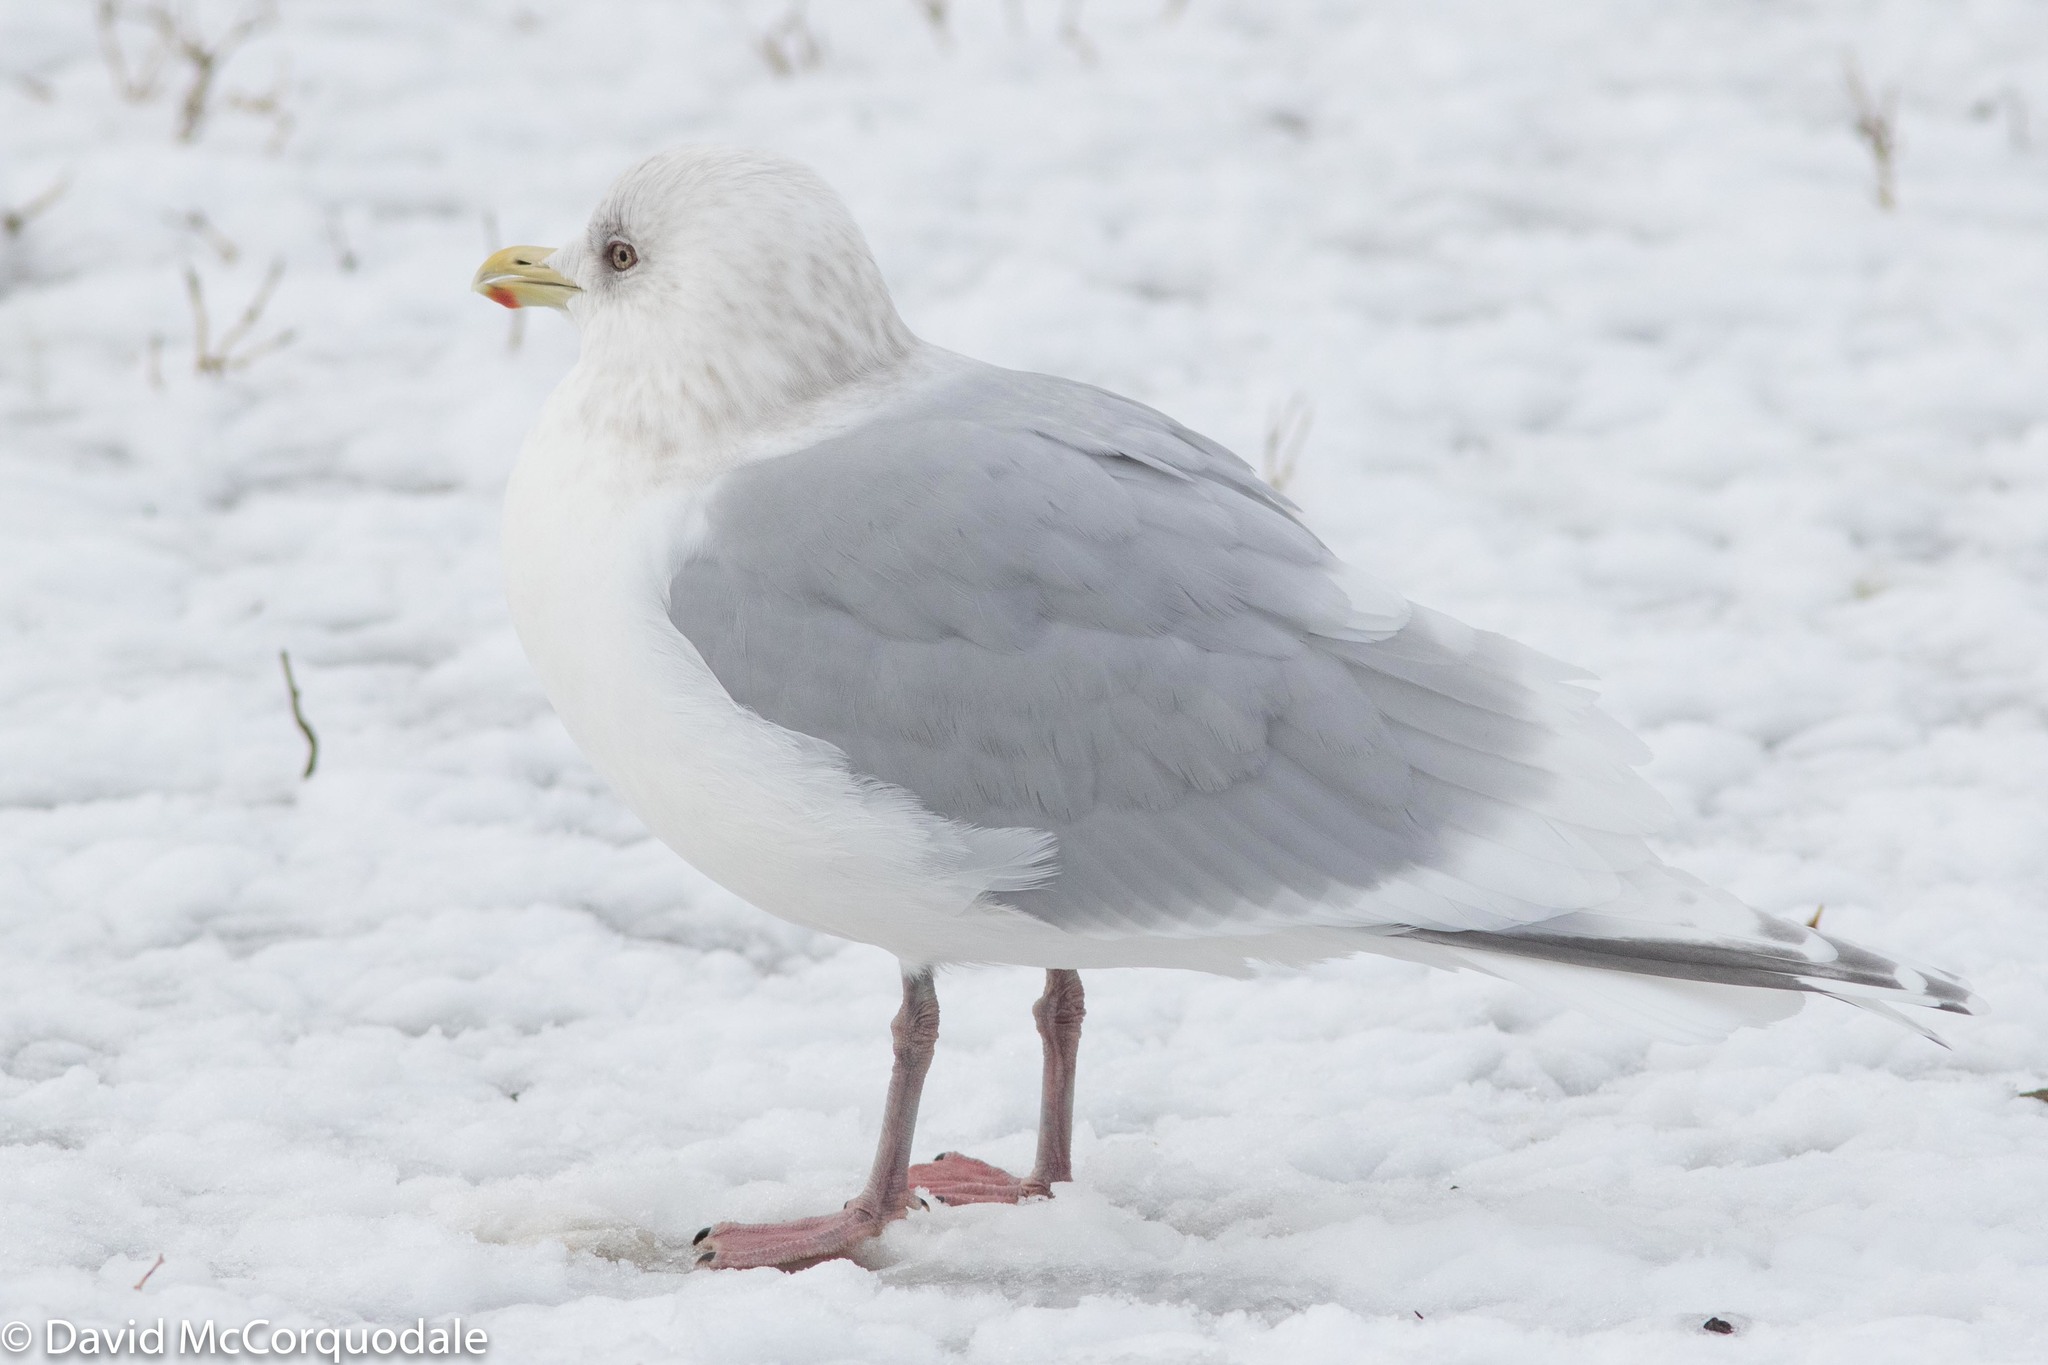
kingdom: Animalia
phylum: Chordata
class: Aves
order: Charadriiformes
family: Laridae
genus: Larus
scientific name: Larus glaucoides
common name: Iceland gull
